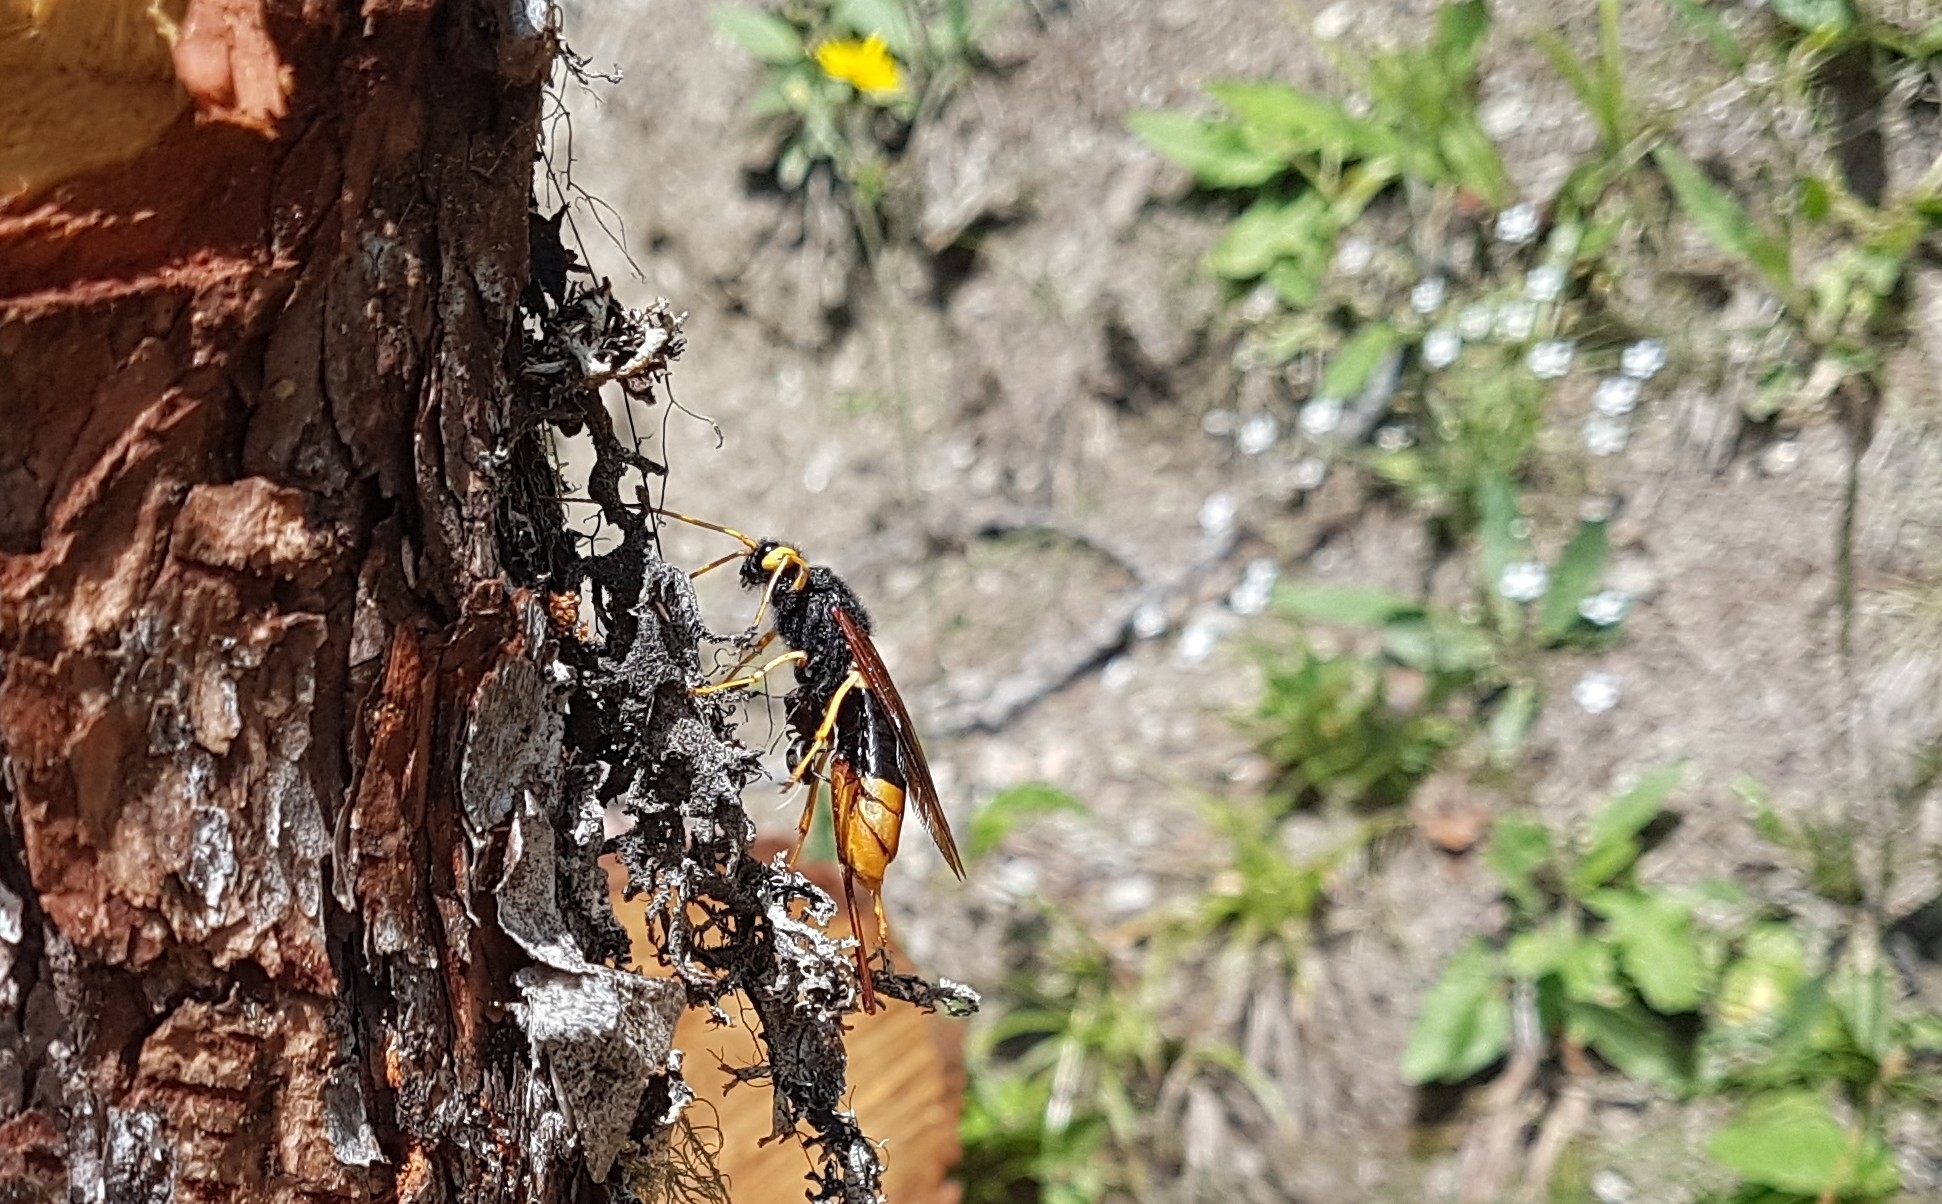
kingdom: Animalia
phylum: Arthropoda
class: Insecta
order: Hymenoptera
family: Siricidae
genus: Urocerus
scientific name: Urocerus gigas
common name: Giant woodwasp
